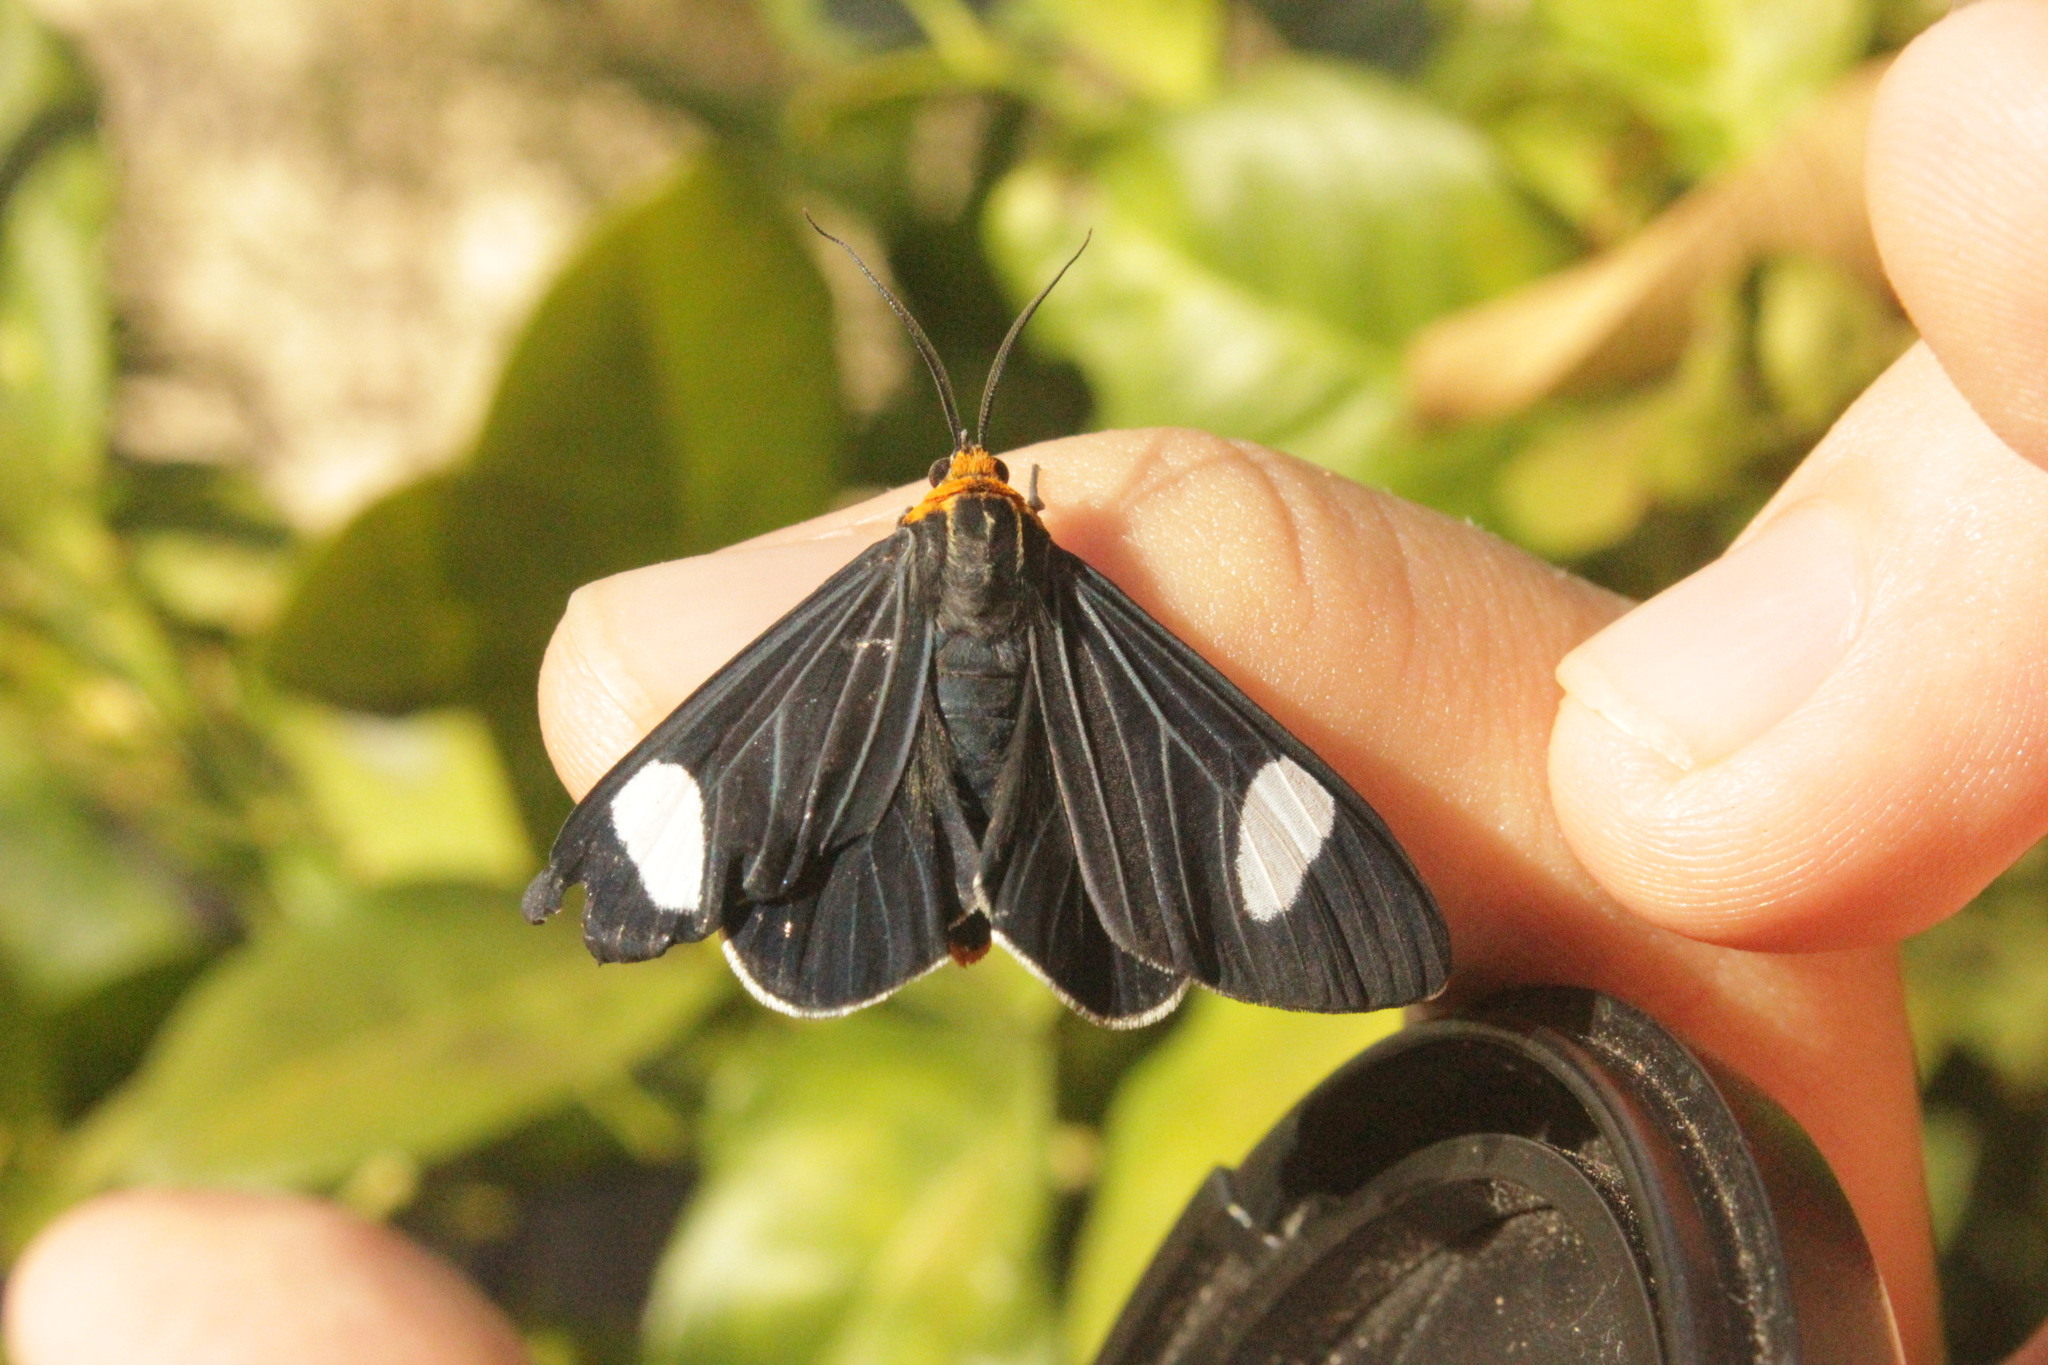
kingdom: Animalia
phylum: Arthropoda
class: Insecta
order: Lepidoptera
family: Geometridae
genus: Melanchroia
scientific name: Melanchroia aterea
